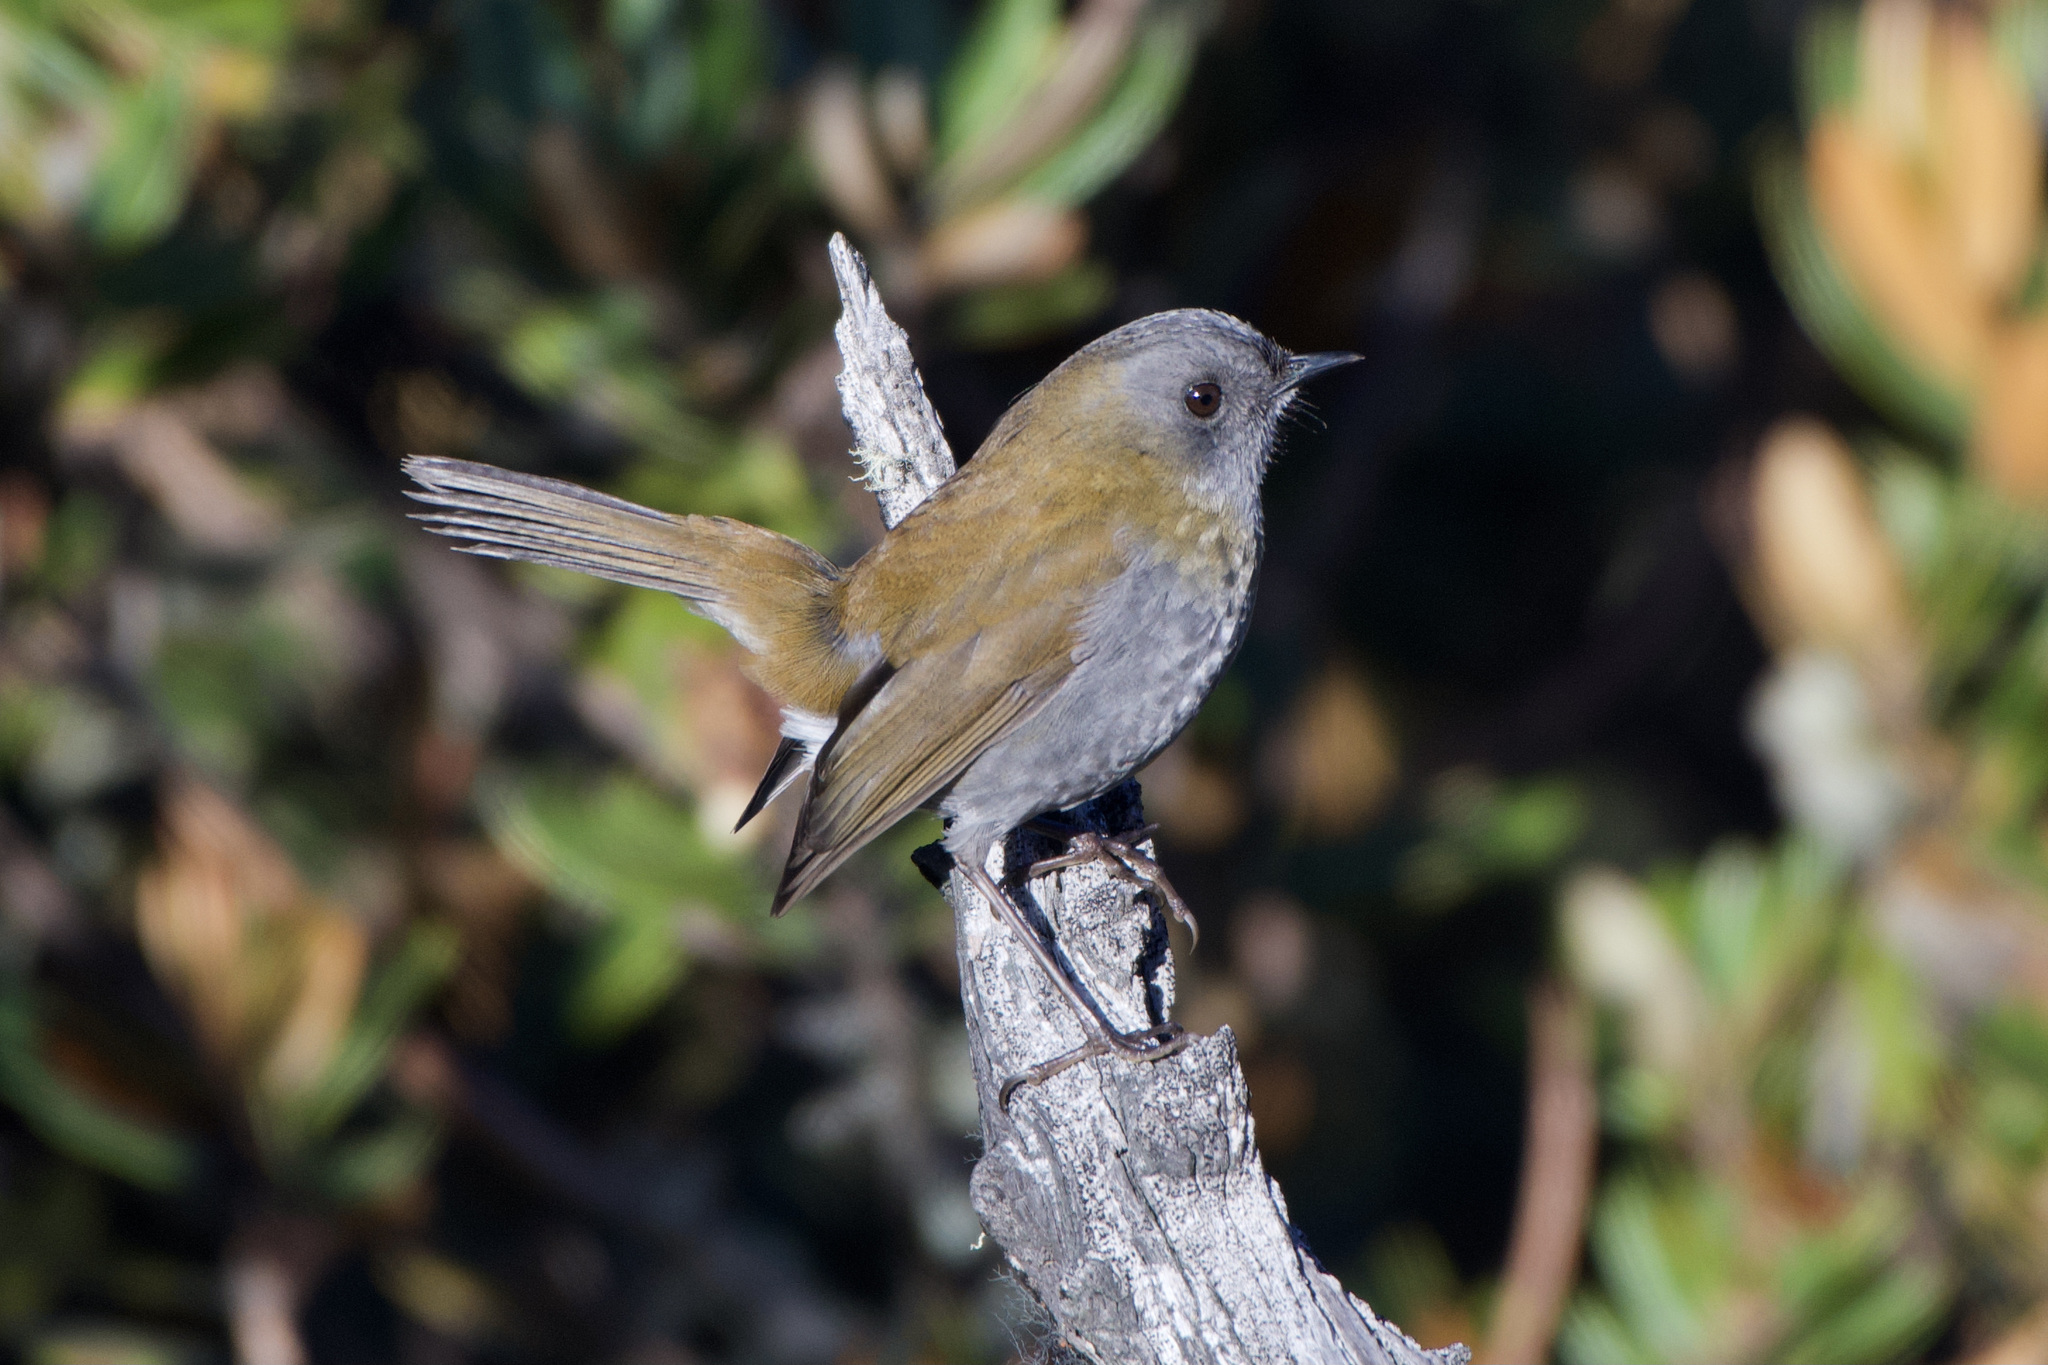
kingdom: Animalia
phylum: Chordata
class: Aves
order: Passeriformes
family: Turdidae
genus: Catharus
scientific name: Catharus gracilirostris
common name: Black-billed nightingale-thrush
